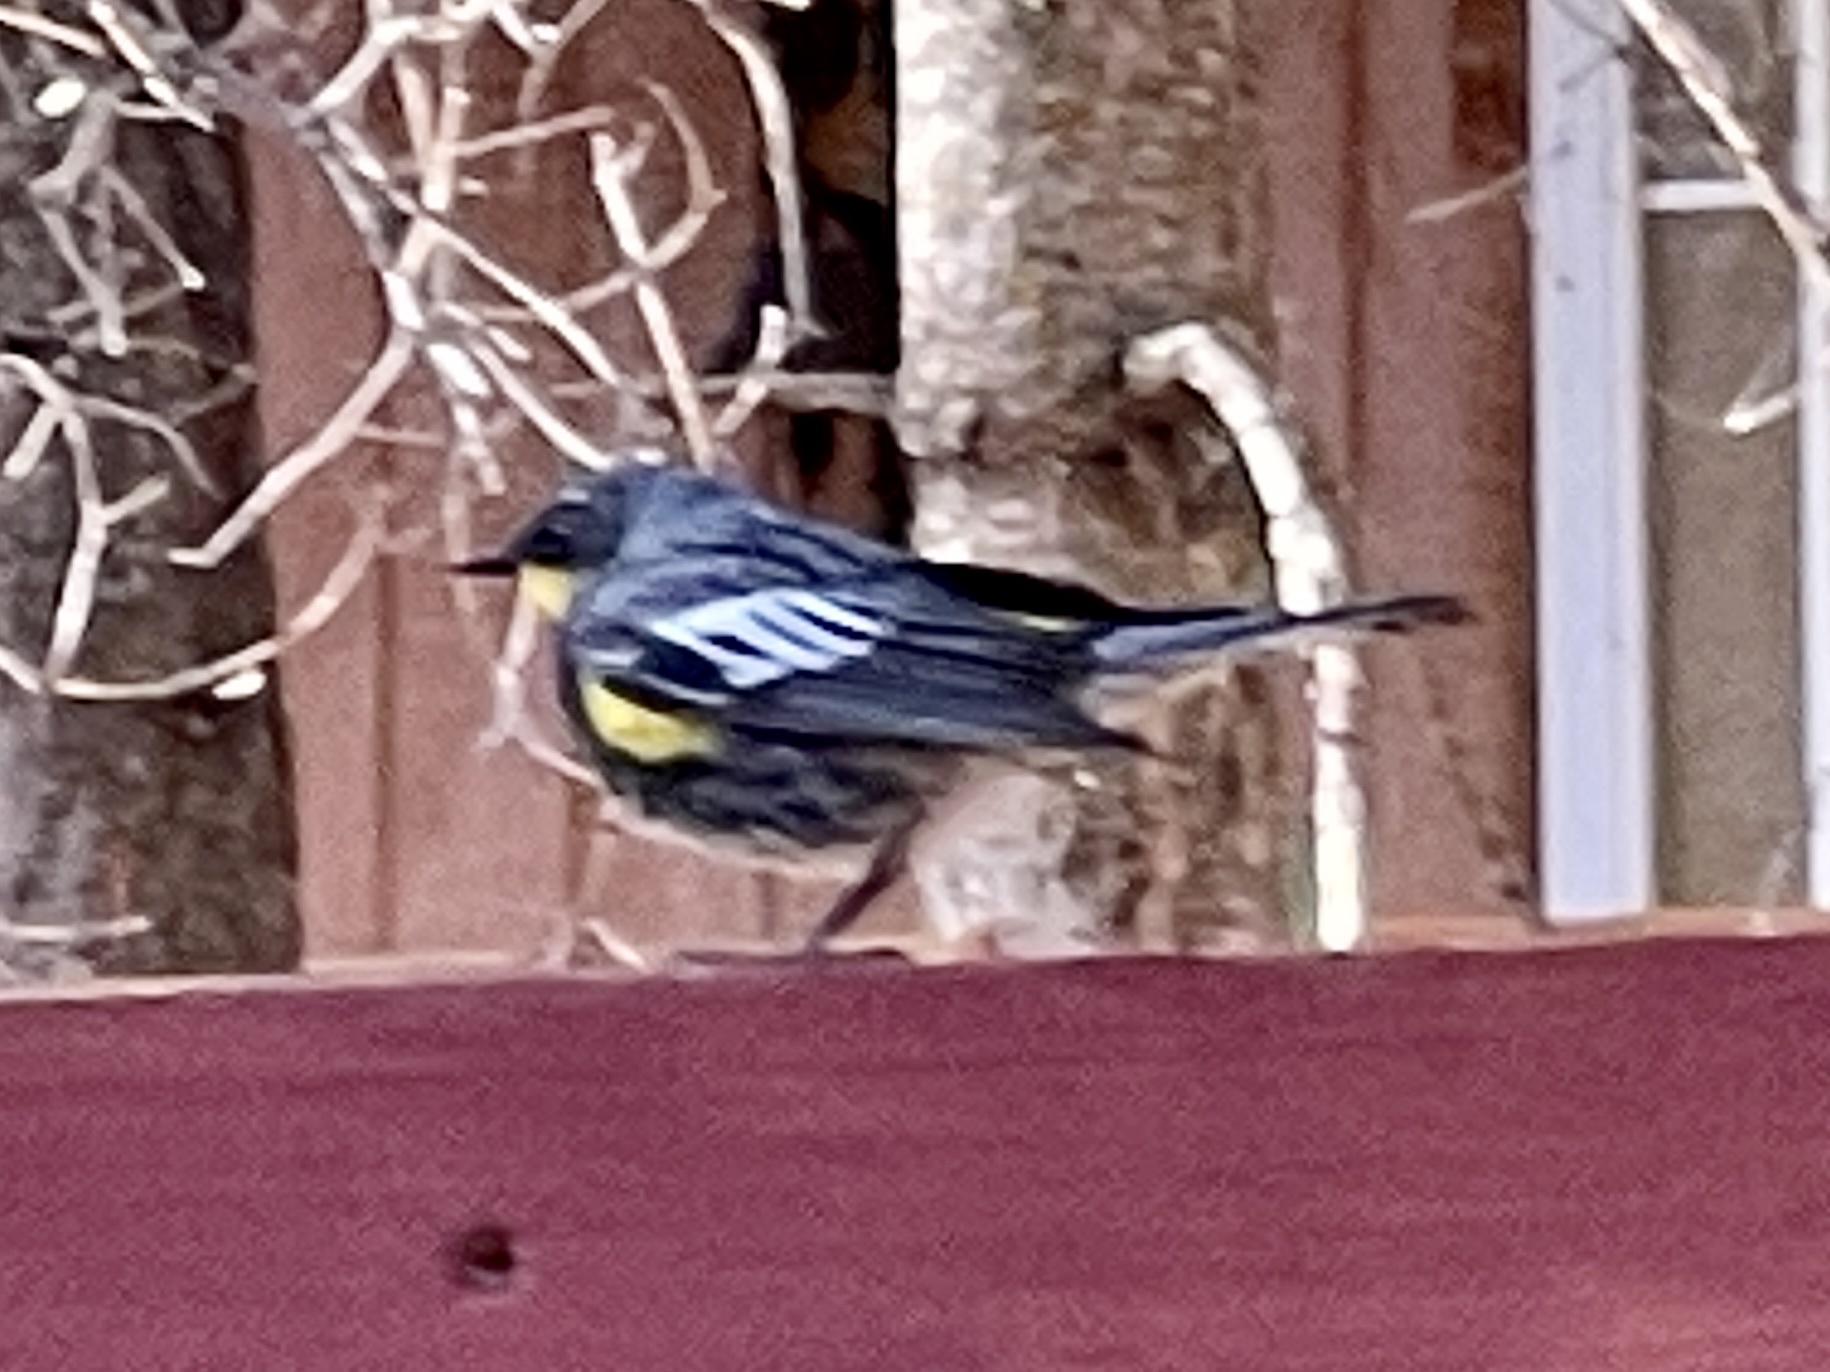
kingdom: Animalia
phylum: Chordata
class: Aves
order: Passeriformes
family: Parulidae
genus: Setophaga
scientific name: Setophaga coronata
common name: Myrtle warbler
